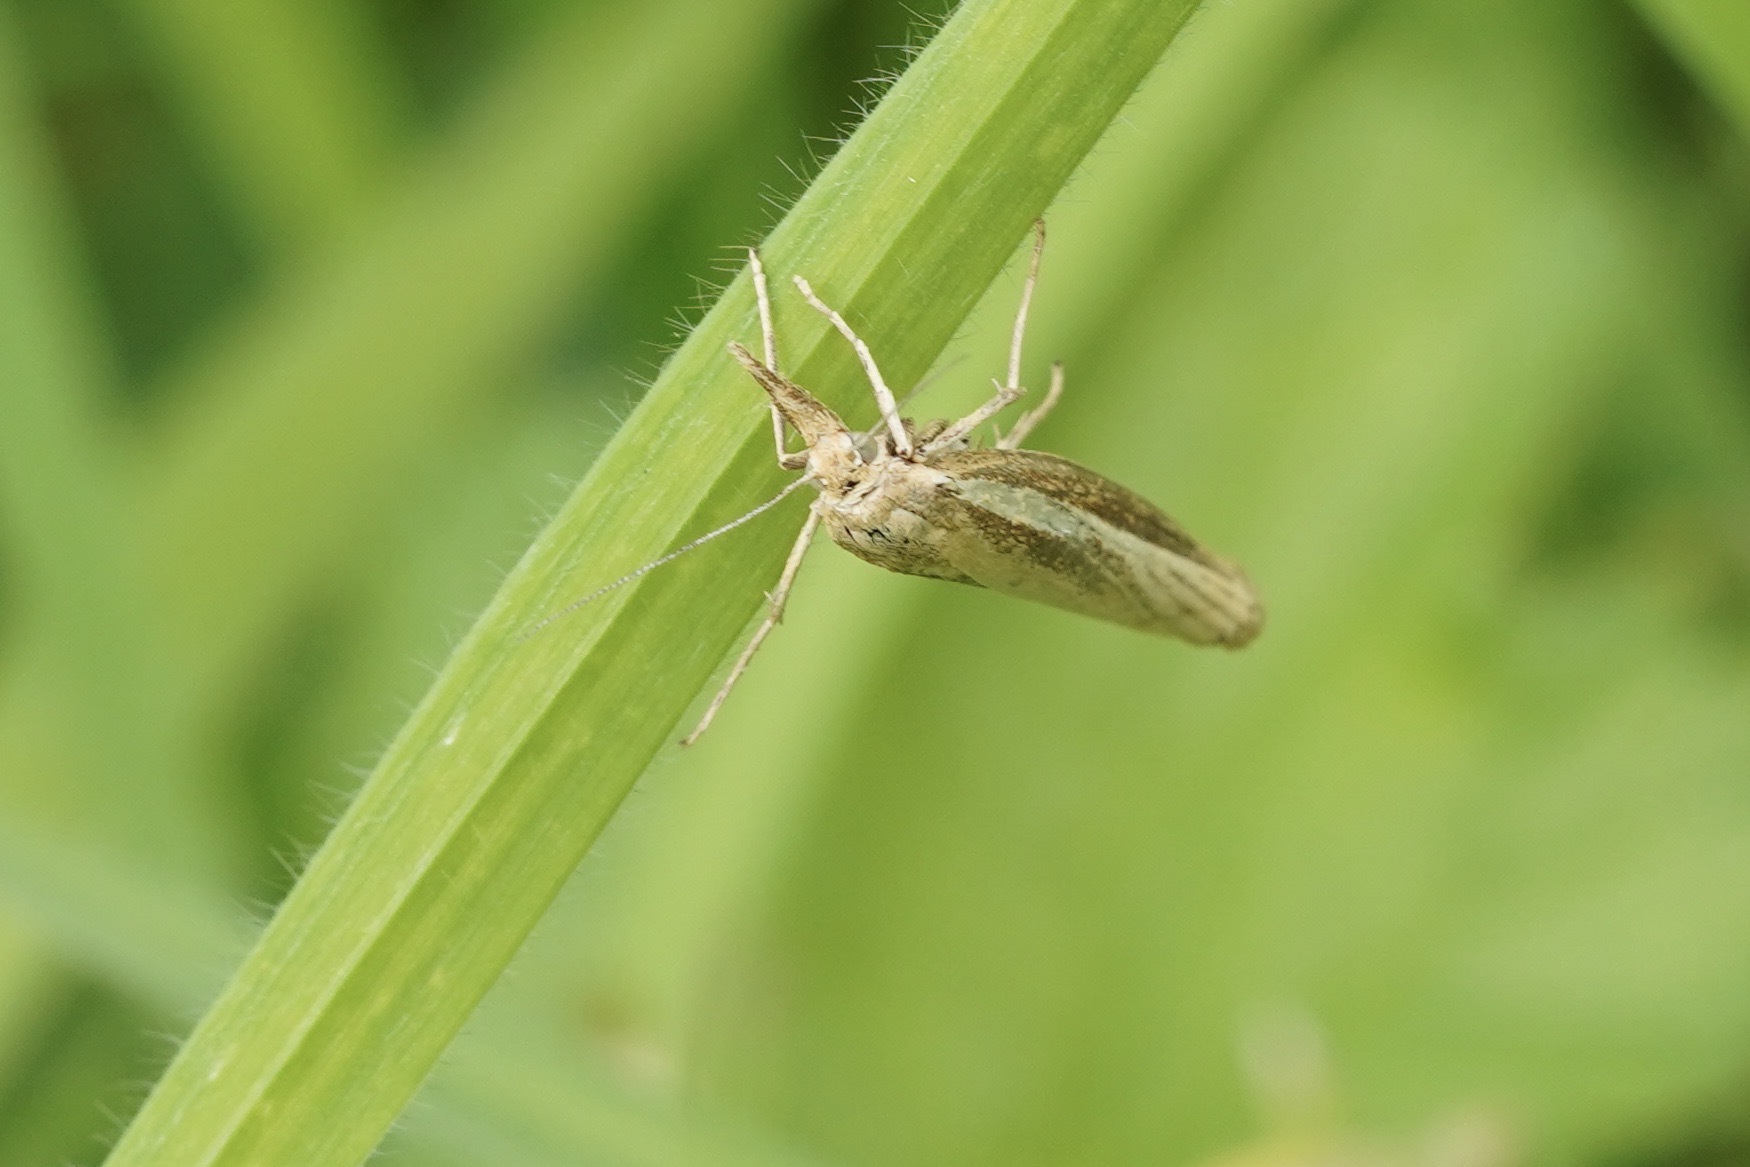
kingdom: Animalia
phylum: Arthropoda
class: Insecta
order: Lepidoptera
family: Crambidae
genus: Agriphila
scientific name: Agriphila tristellus
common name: Common grass-veneer
